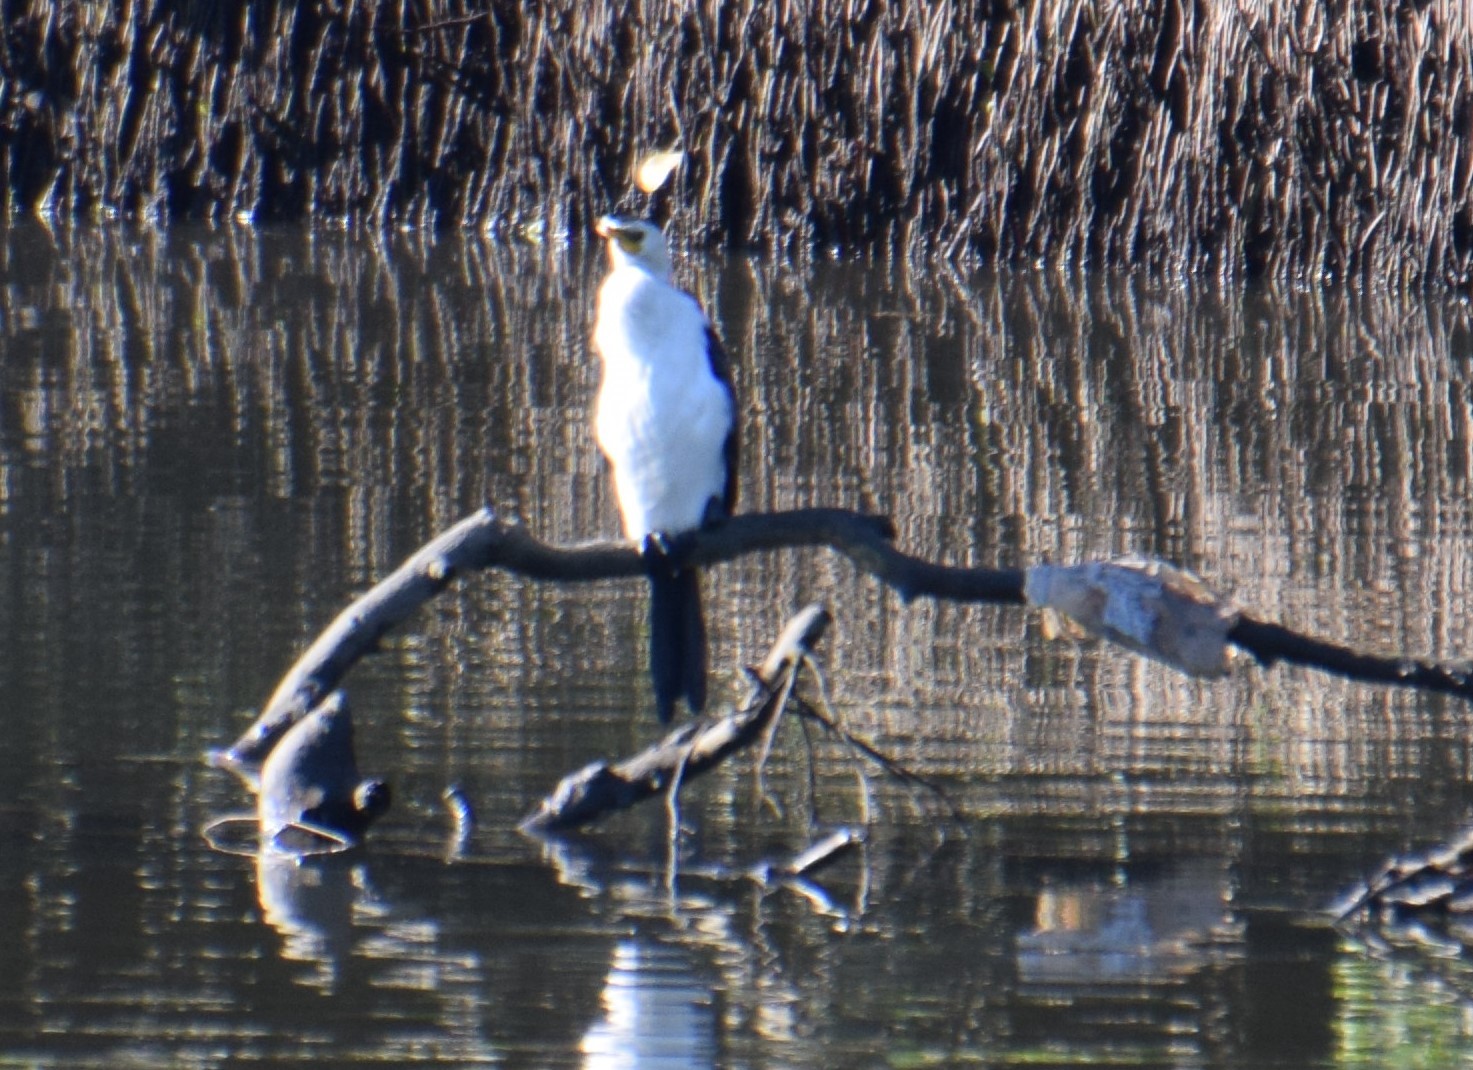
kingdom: Animalia
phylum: Chordata
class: Aves
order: Suliformes
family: Phalacrocoracidae
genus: Microcarbo
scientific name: Microcarbo melanoleucos
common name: Little pied cormorant
